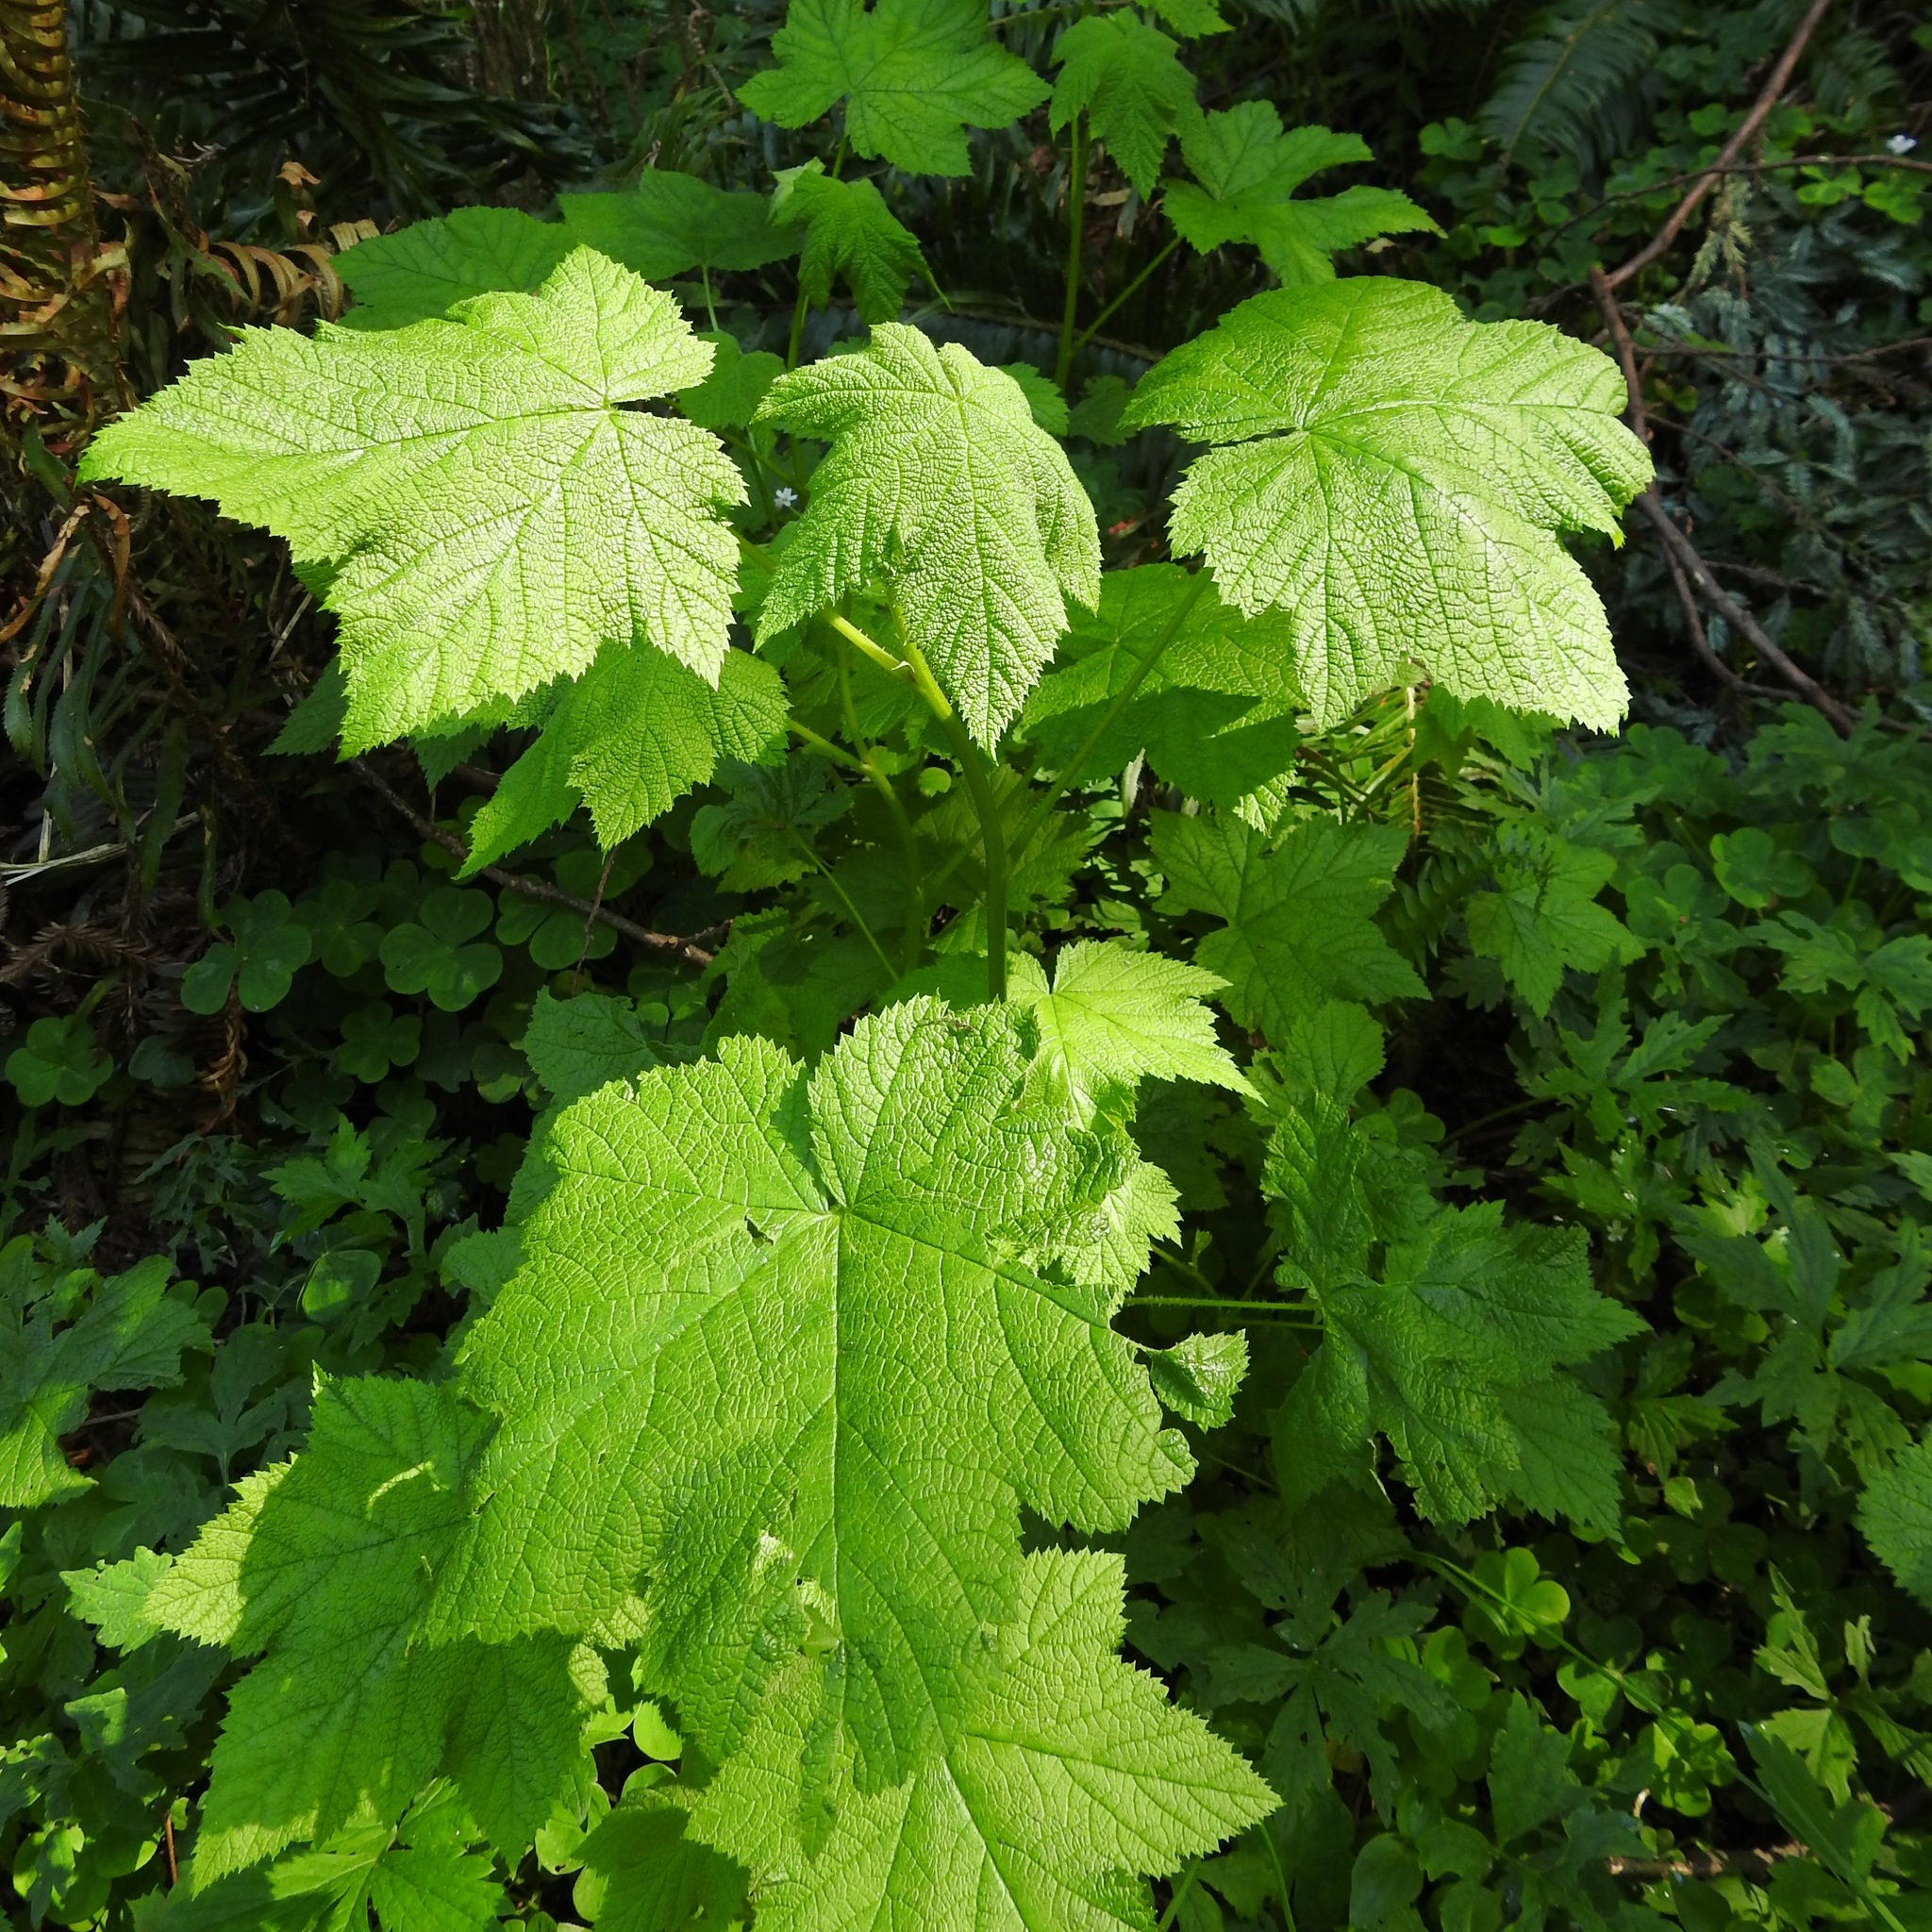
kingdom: Plantae
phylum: Tracheophyta
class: Magnoliopsida
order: Rosales
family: Rosaceae
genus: Rubus
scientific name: Rubus parviflorus
